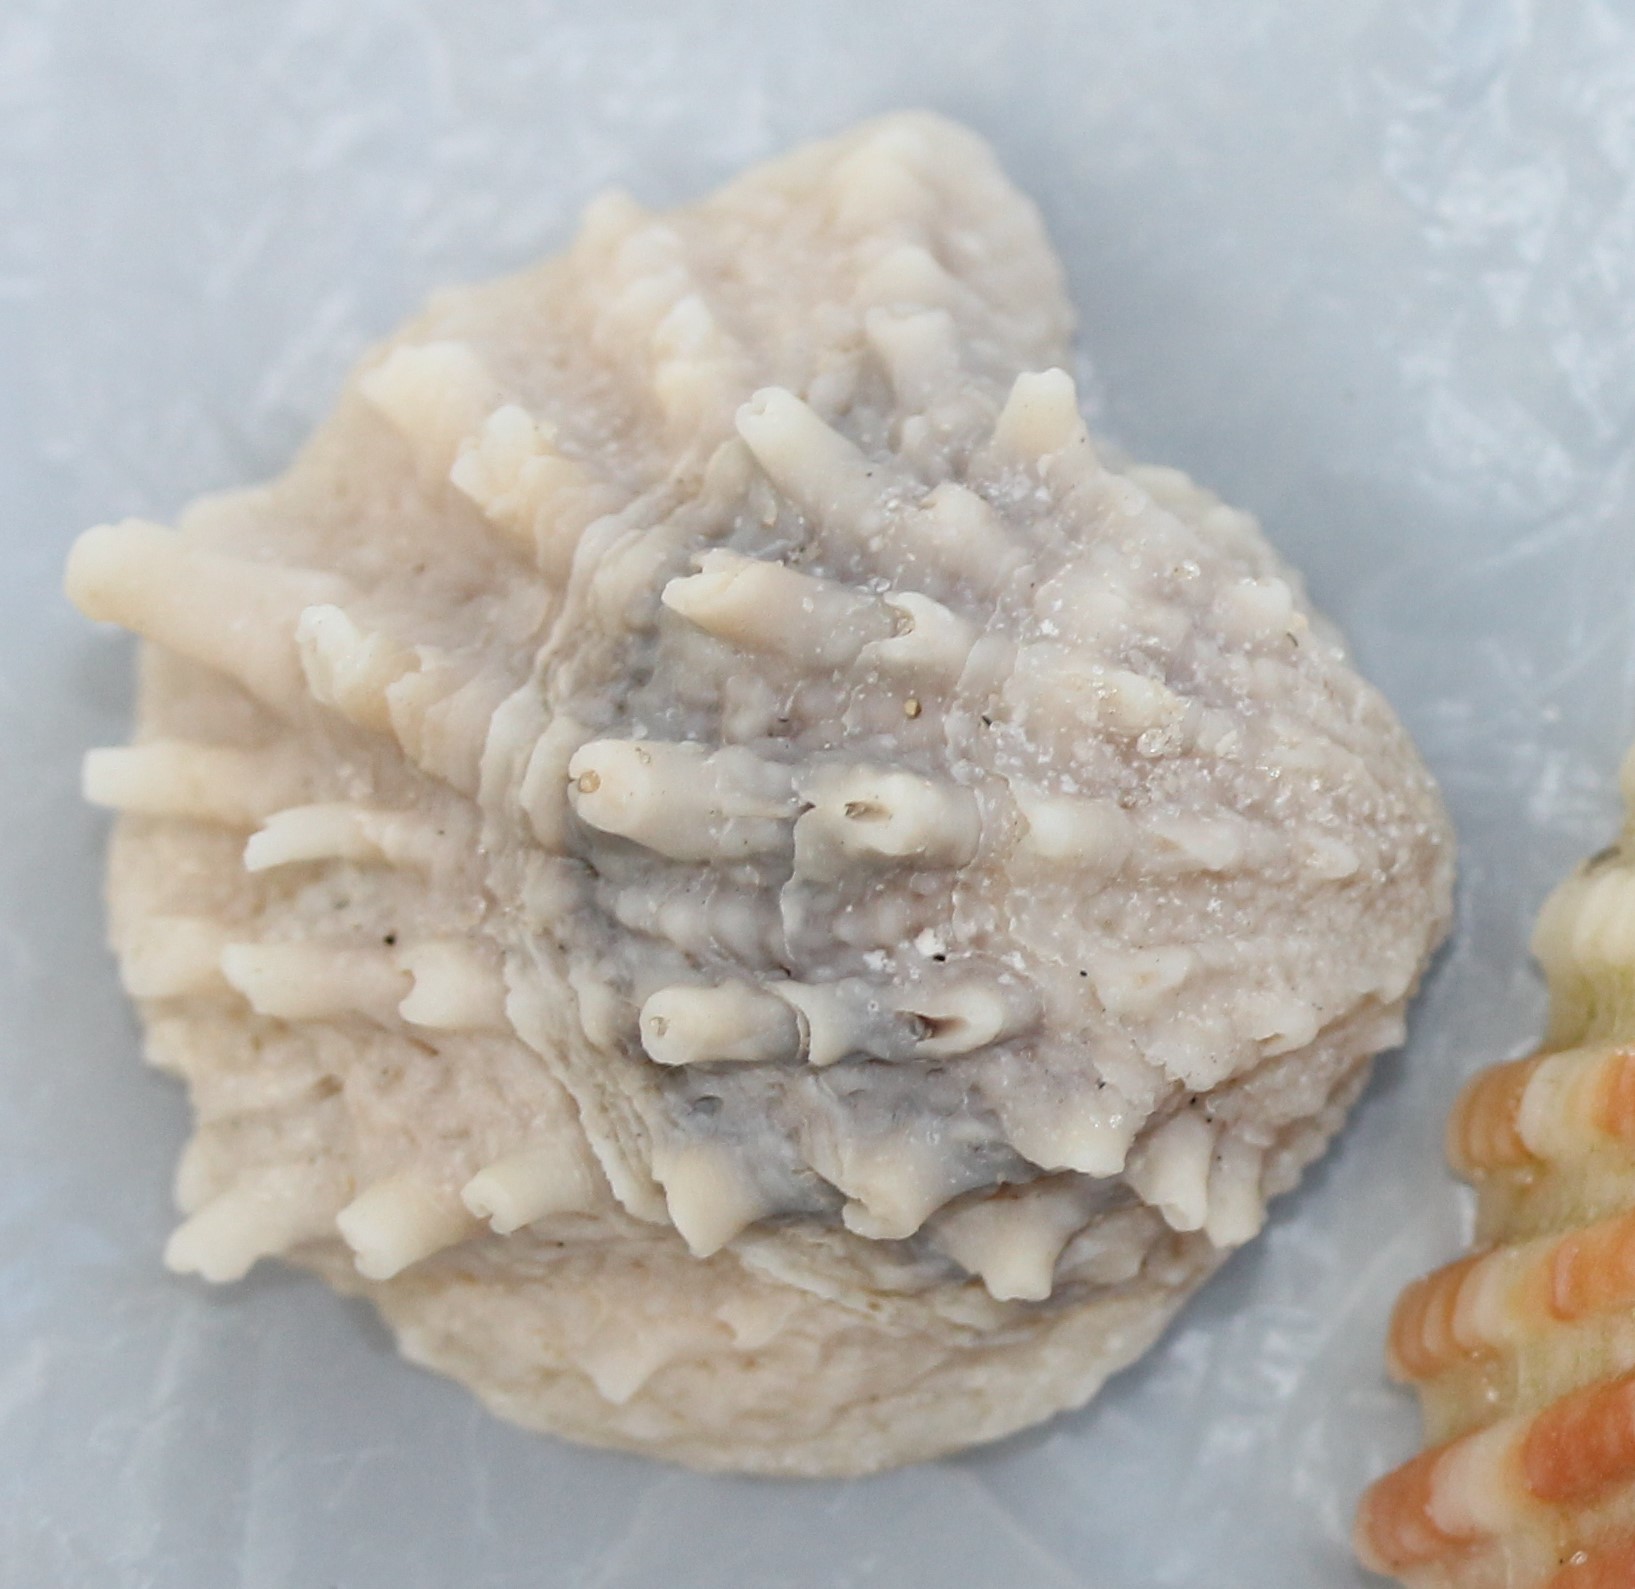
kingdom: Animalia
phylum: Mollusca
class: Bivalvia
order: Venerida
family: Chamidae
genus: Arcinella
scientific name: Arcinella cornuta
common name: Florida spiny jewel box
